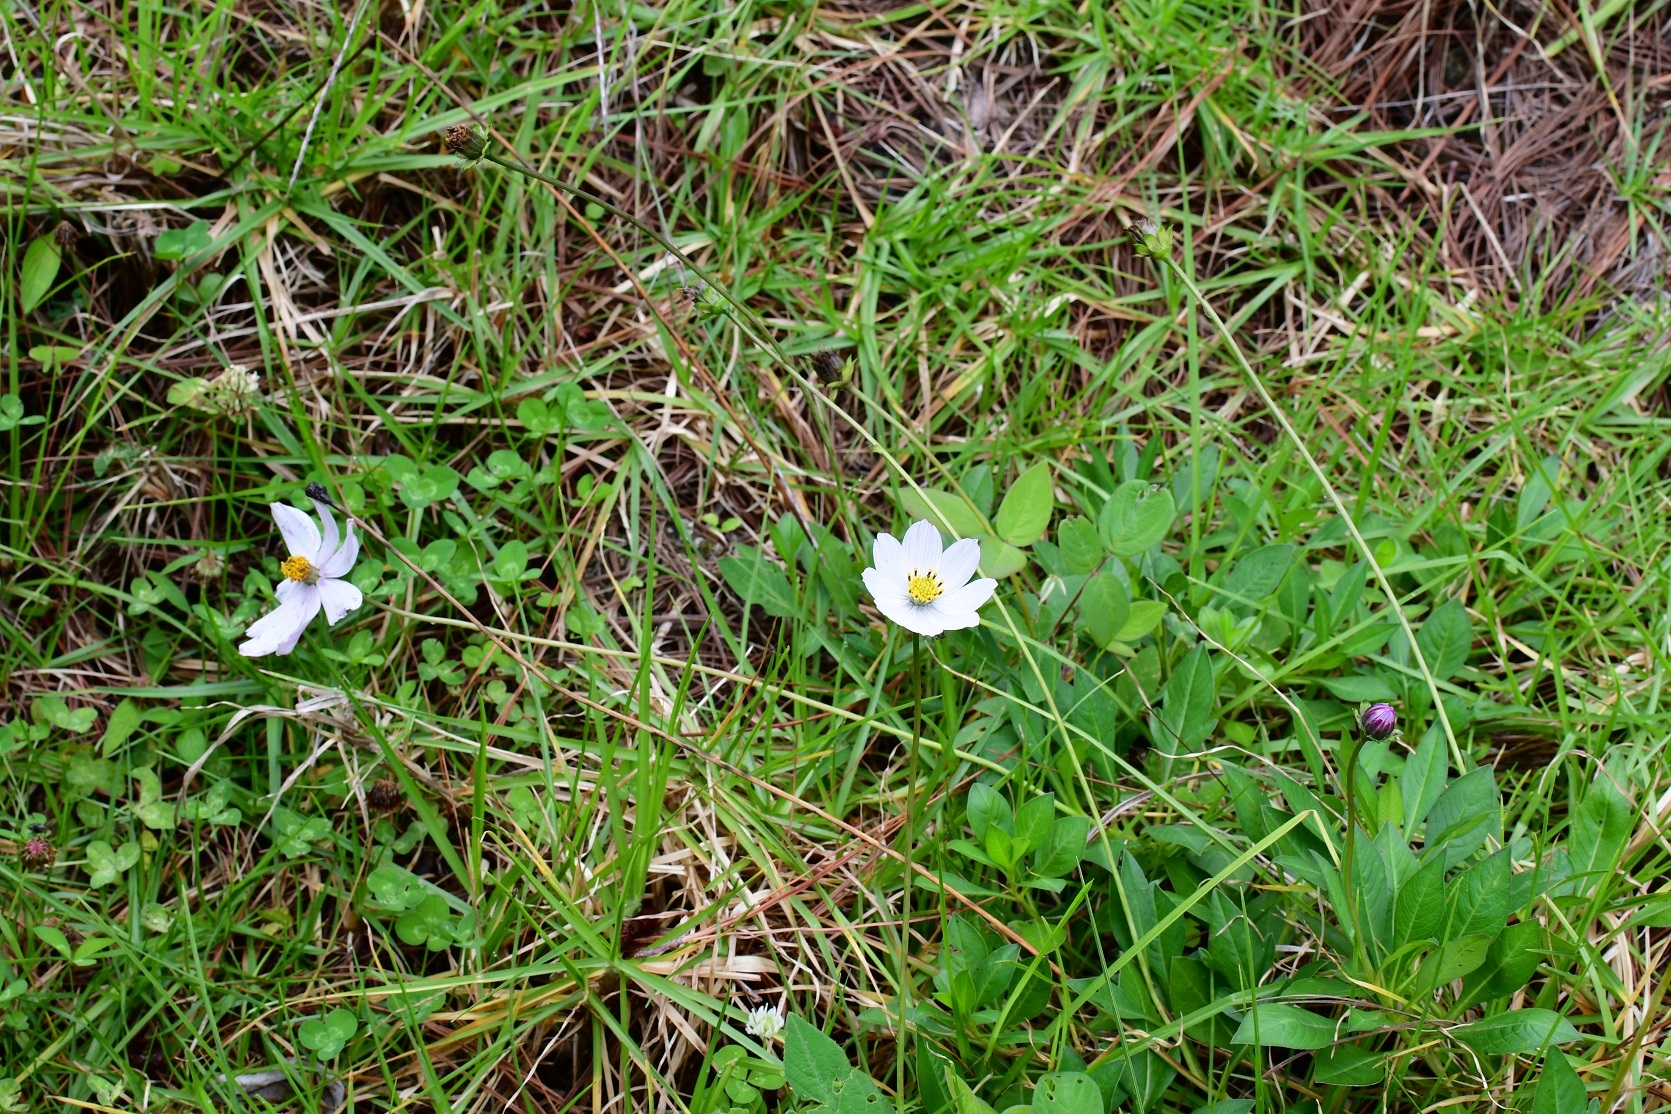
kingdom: Plantae
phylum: Tracheophyta
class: Magnoliopsida
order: Asterales
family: Asteraceae
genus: Cosmos
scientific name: Cosmos diversifolius
